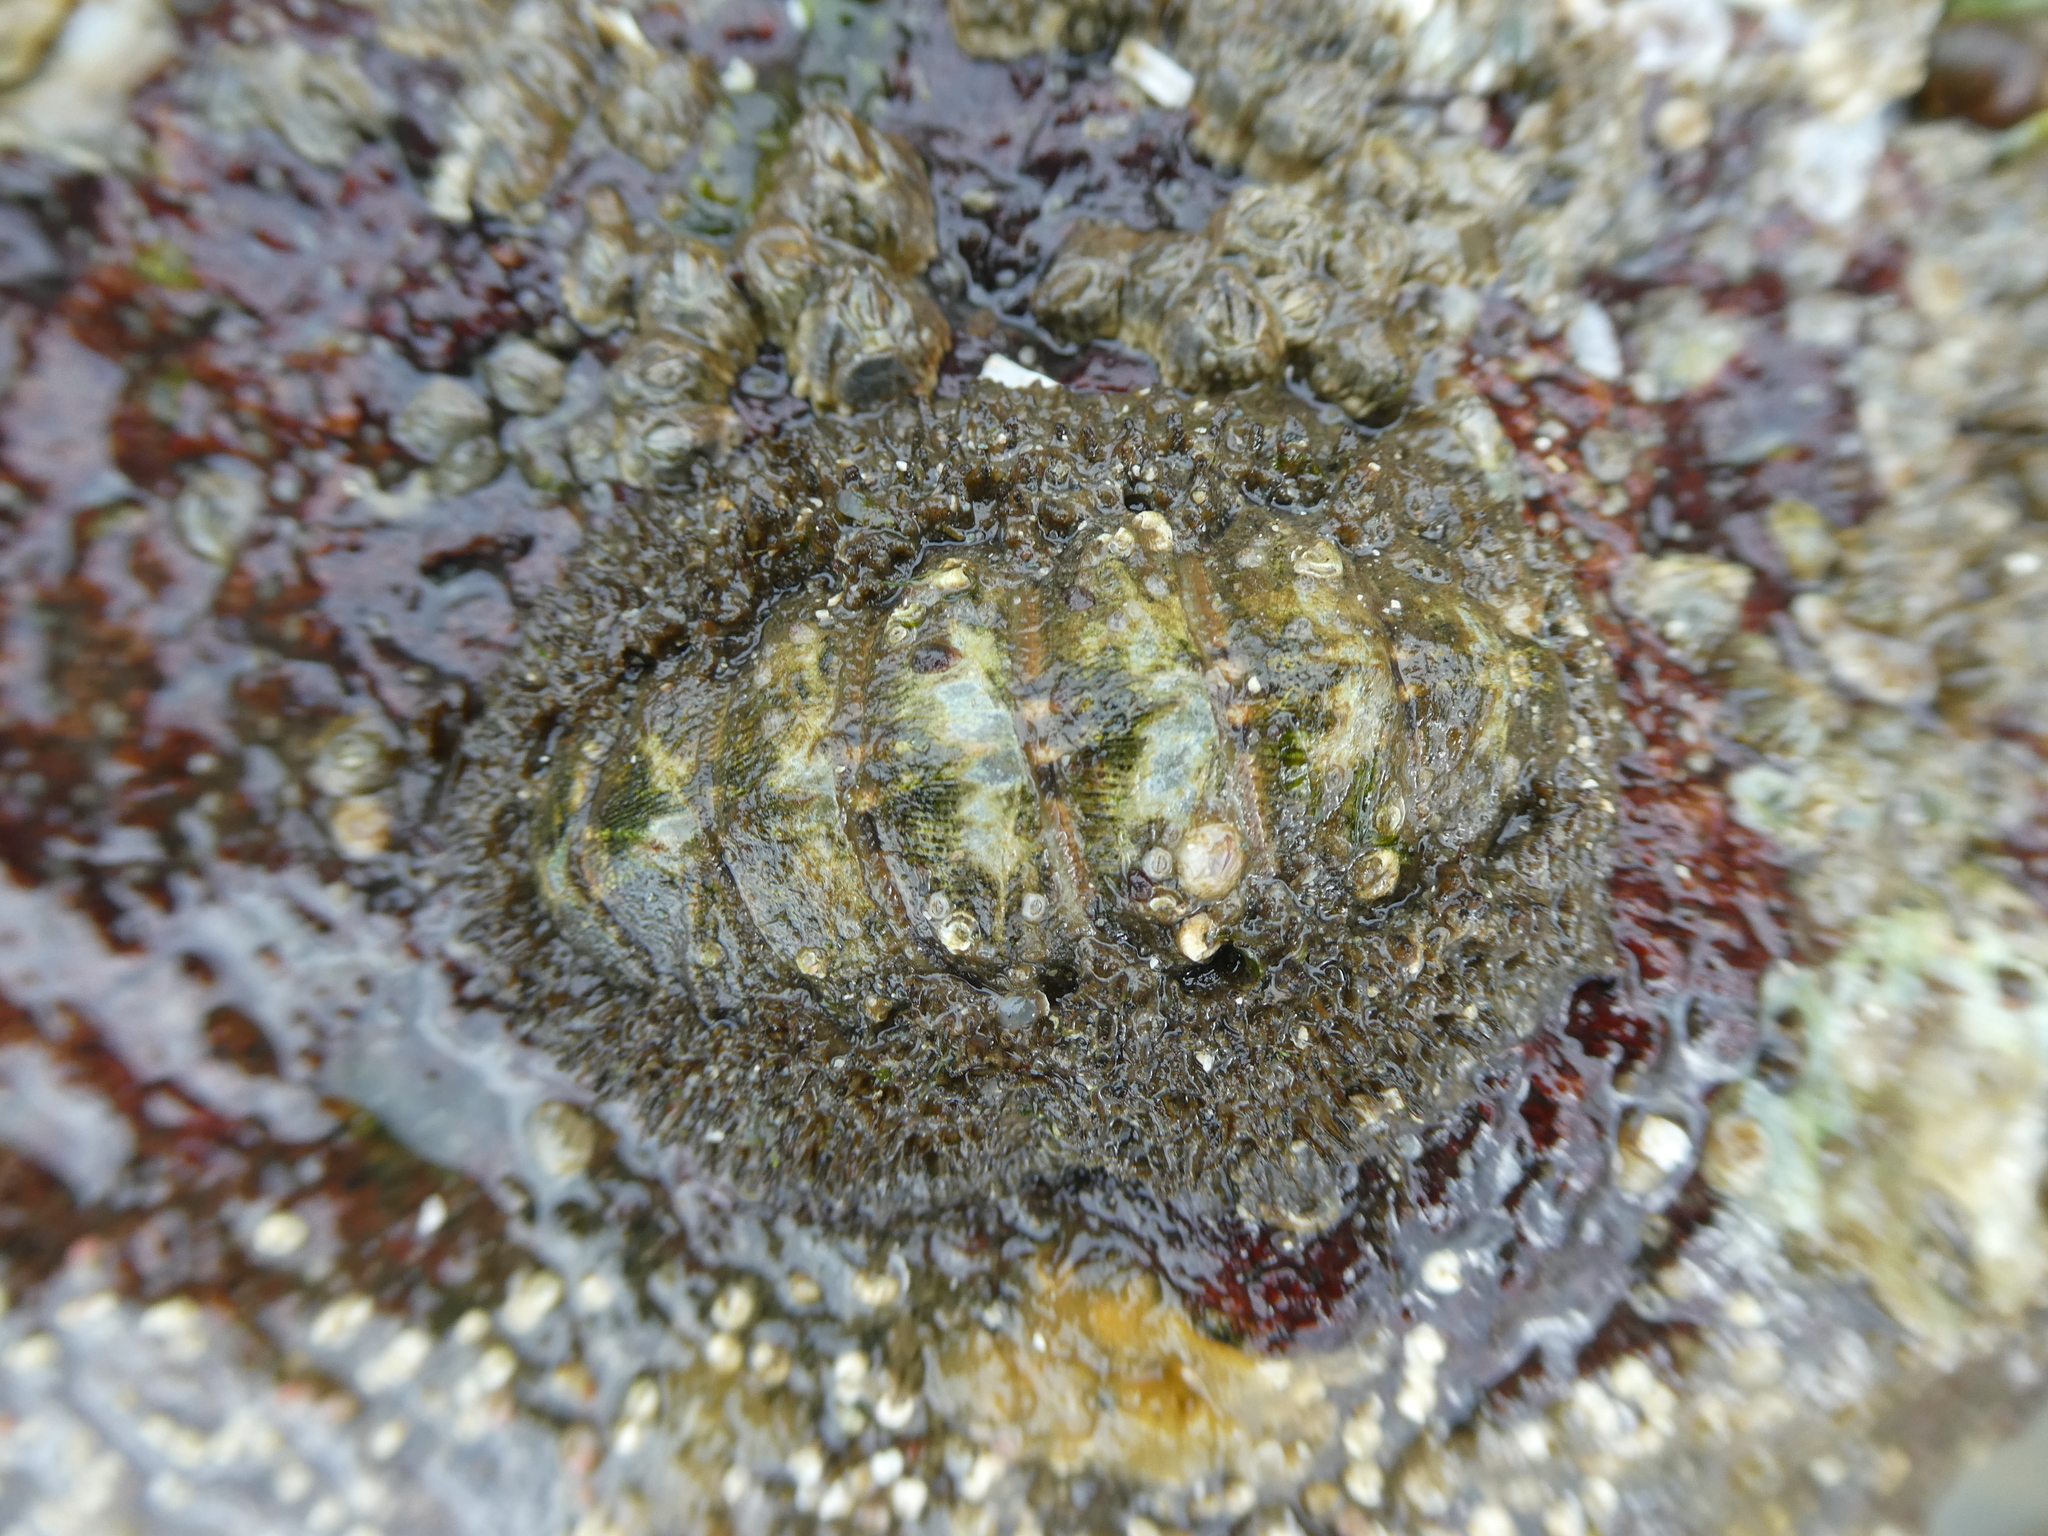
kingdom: Animalia
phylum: Mollusca
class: Polyplacophora
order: Chitonida
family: Mopaliidae
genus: Mopalia
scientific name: Mopalia muscosa
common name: Mossy chiton
